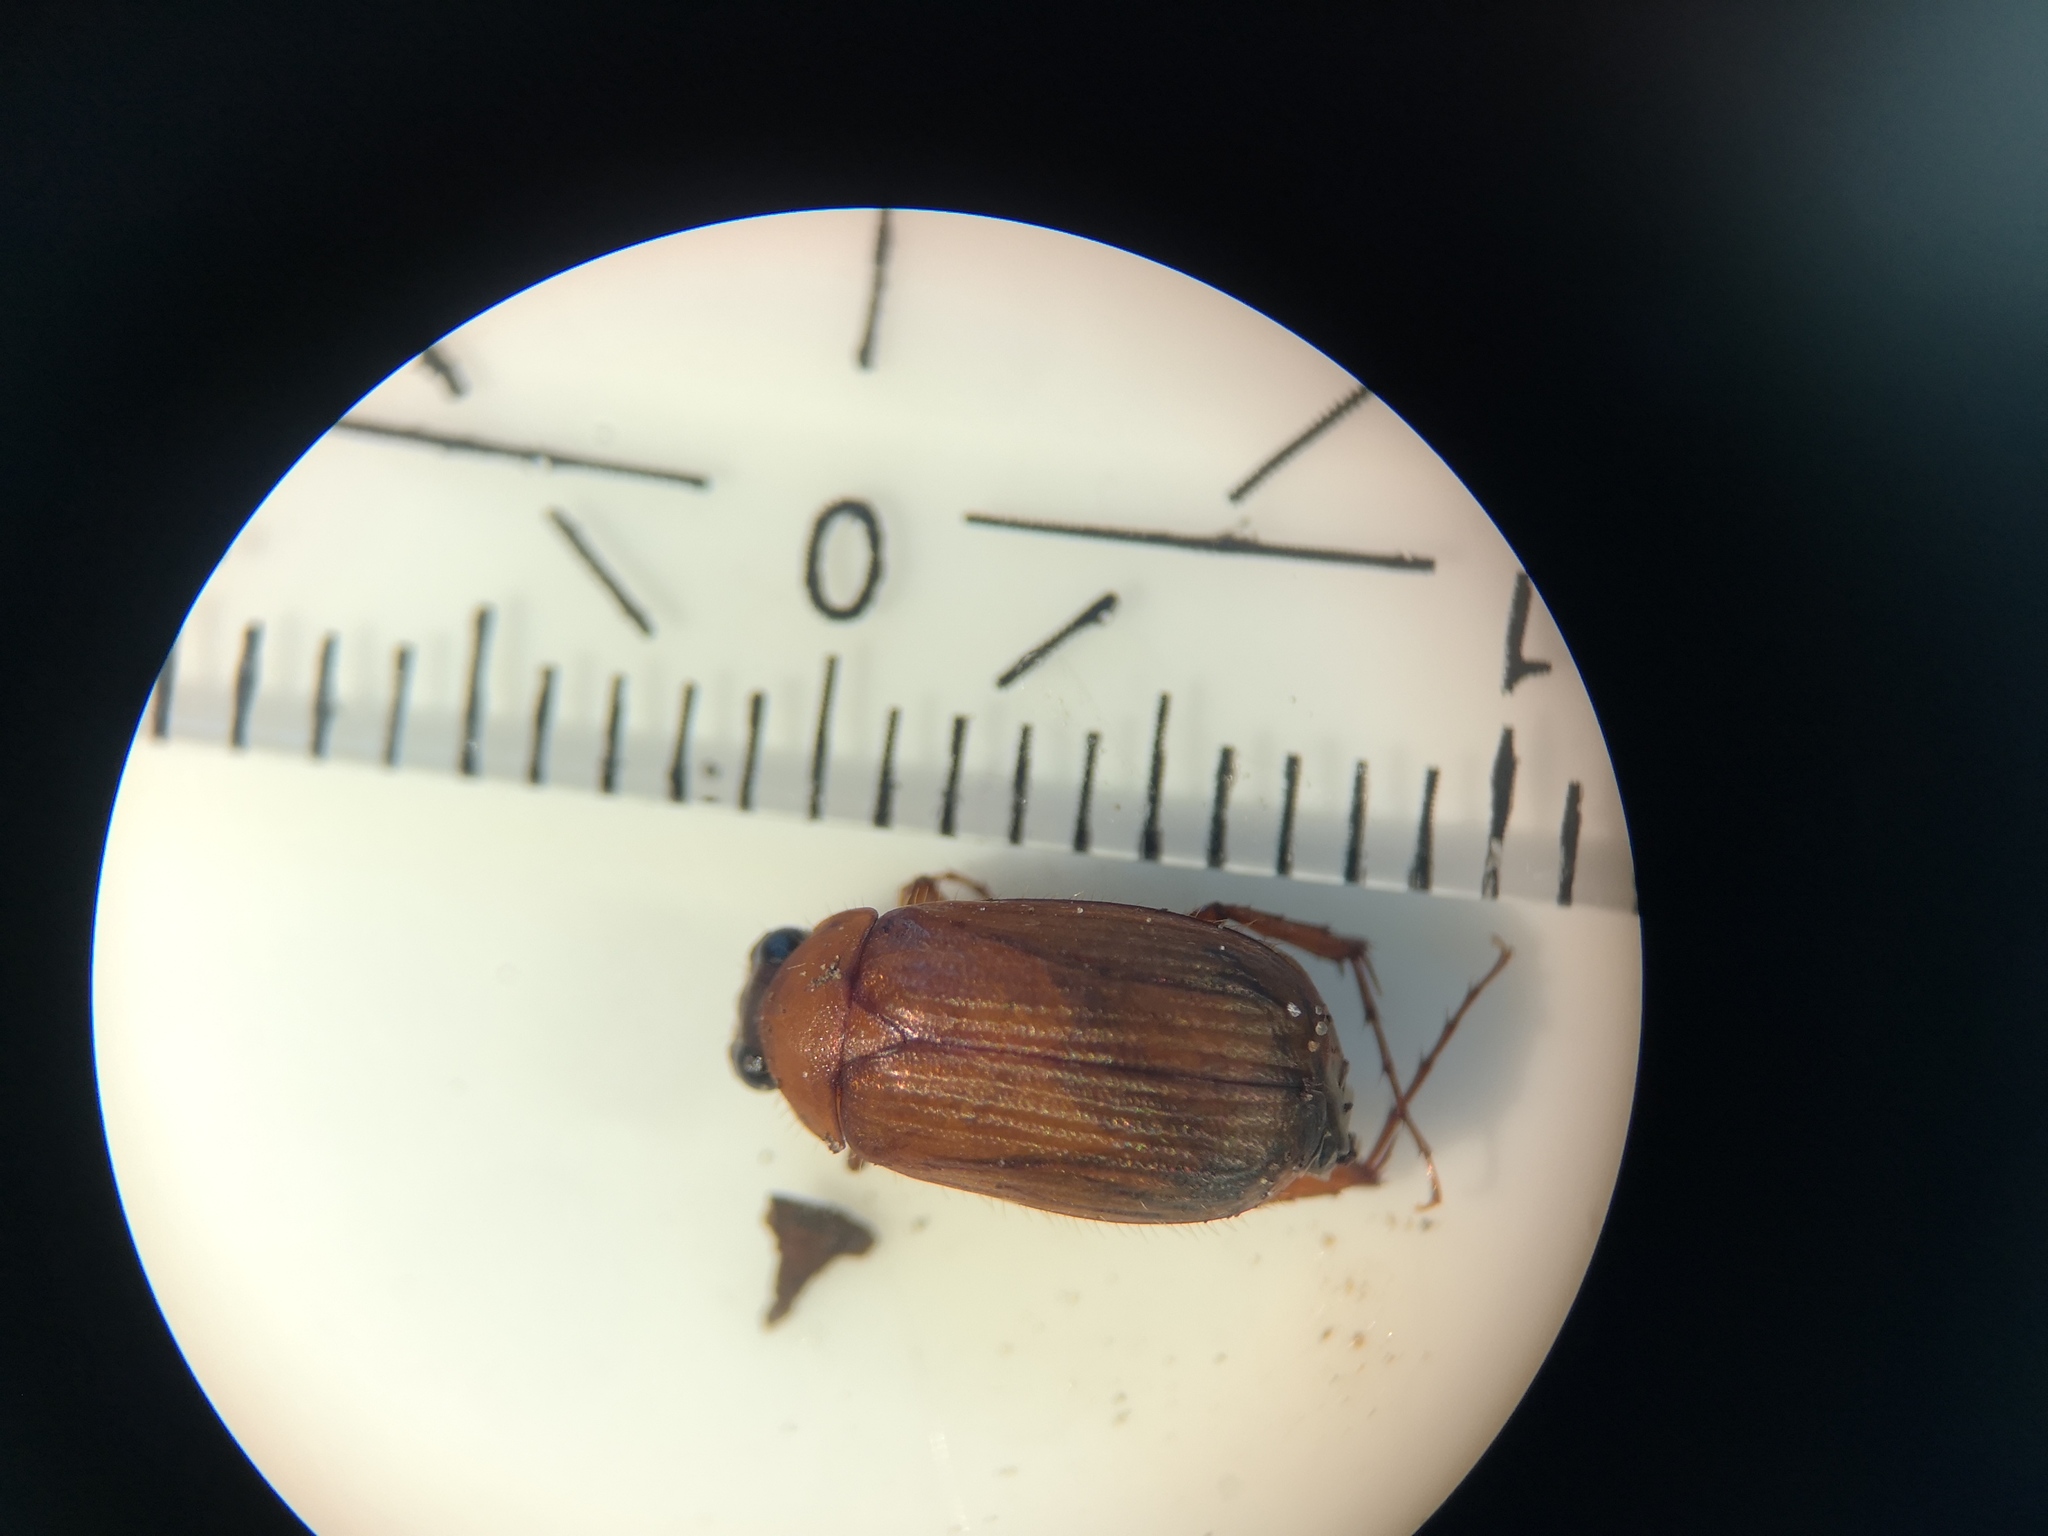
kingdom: Animalia
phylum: Arthropoda
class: Insecta
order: Coleoptera
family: Scarabaeidae
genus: Serica
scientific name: Serica brunnea
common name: Brown chafer
